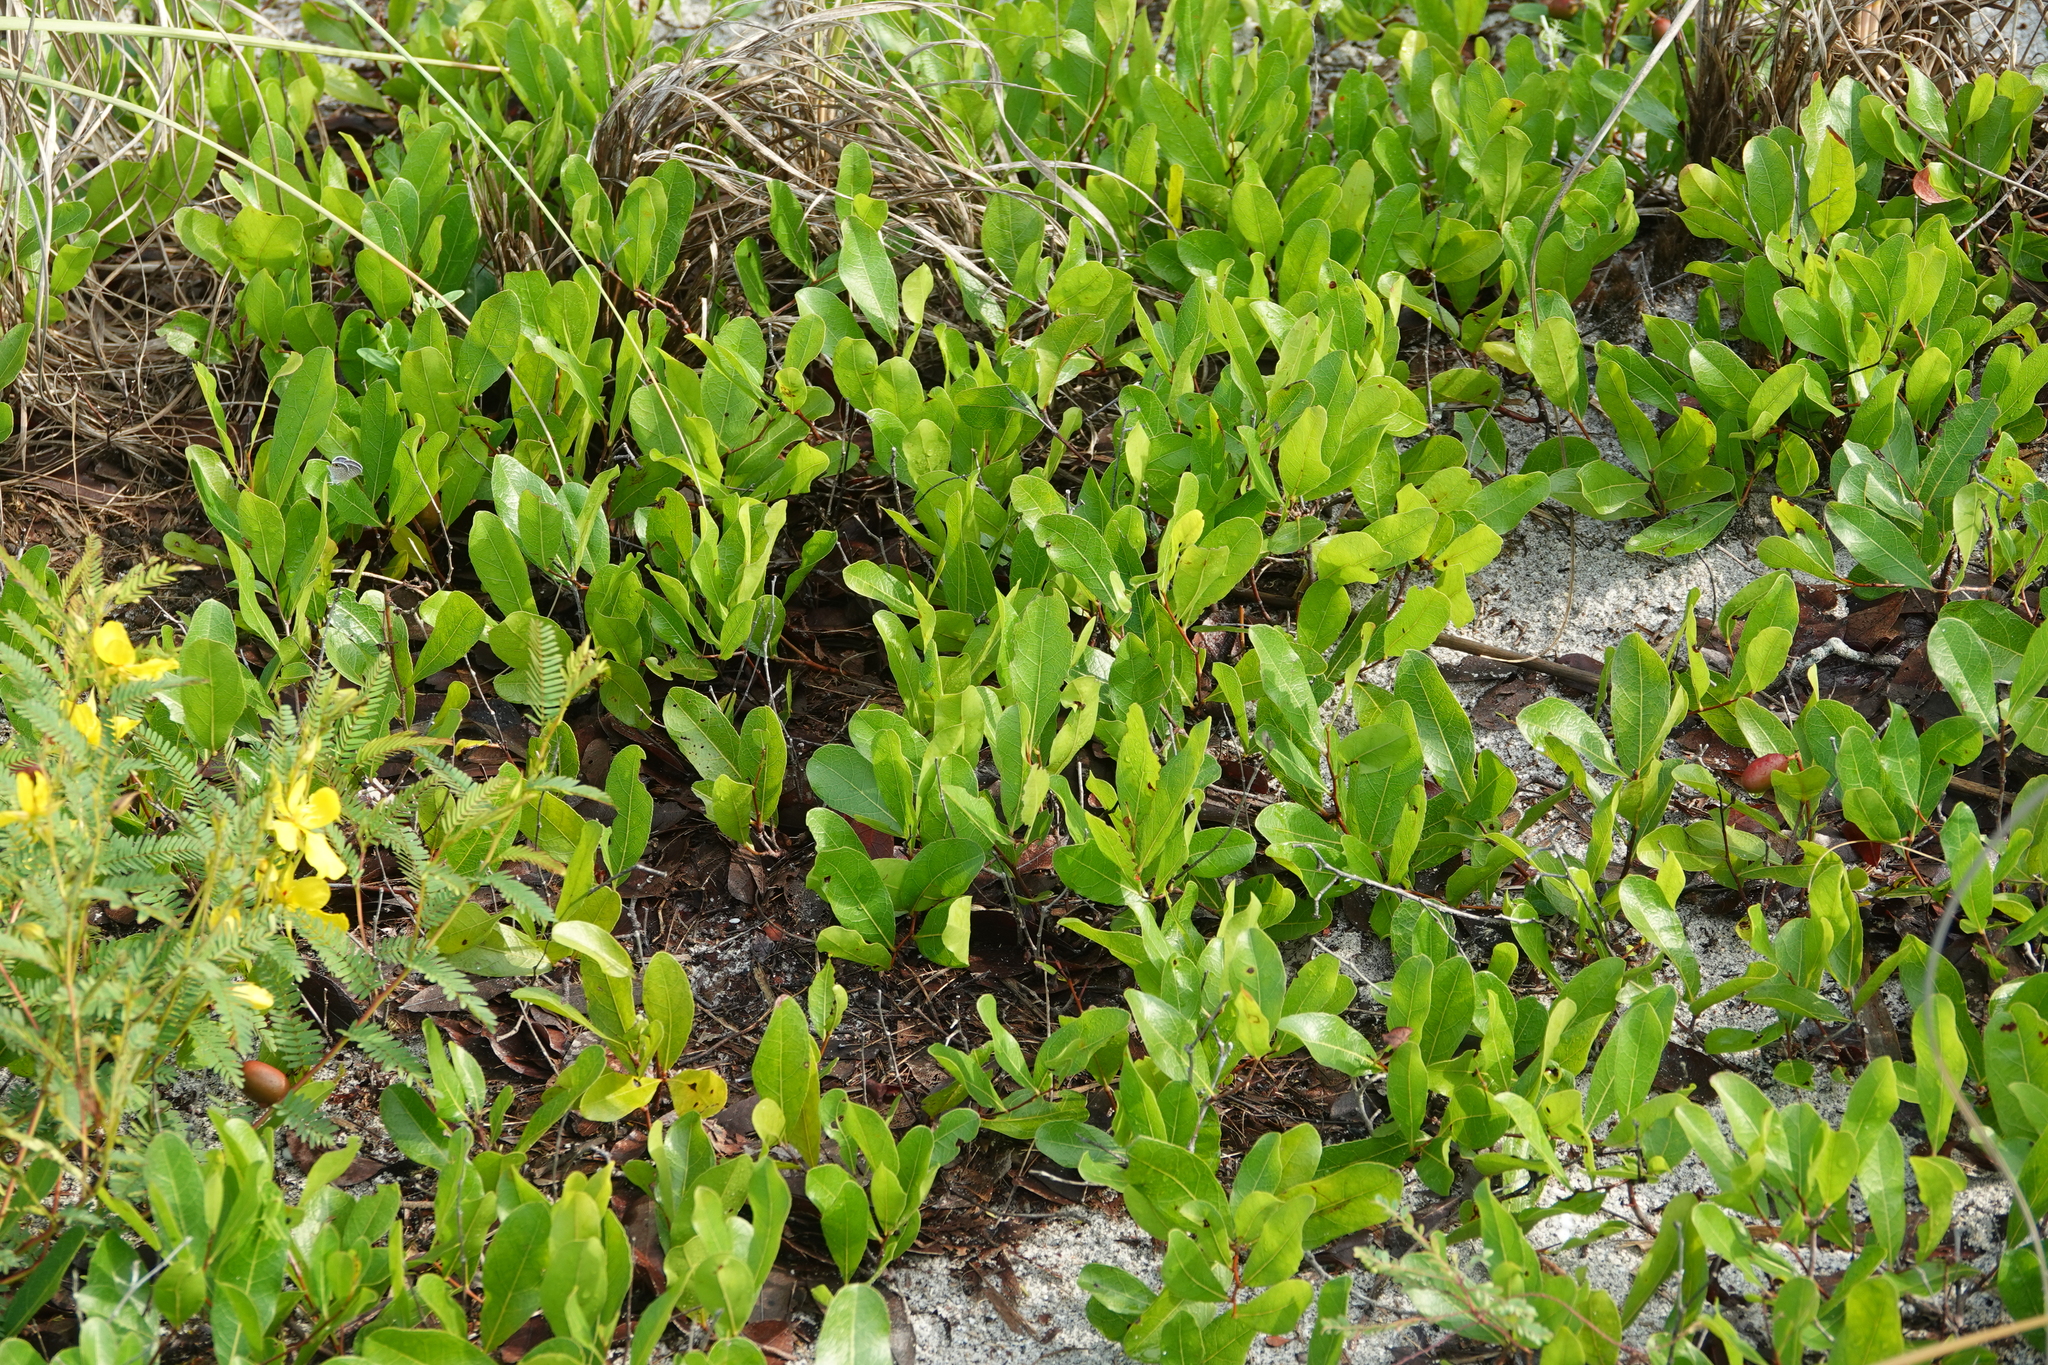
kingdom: Plantae
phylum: Tracheophyta
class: Magnoliopsida
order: Malpighiales
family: Chrysobalanaceae
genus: Geobalanus
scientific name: Geobalanus oblongifolius
